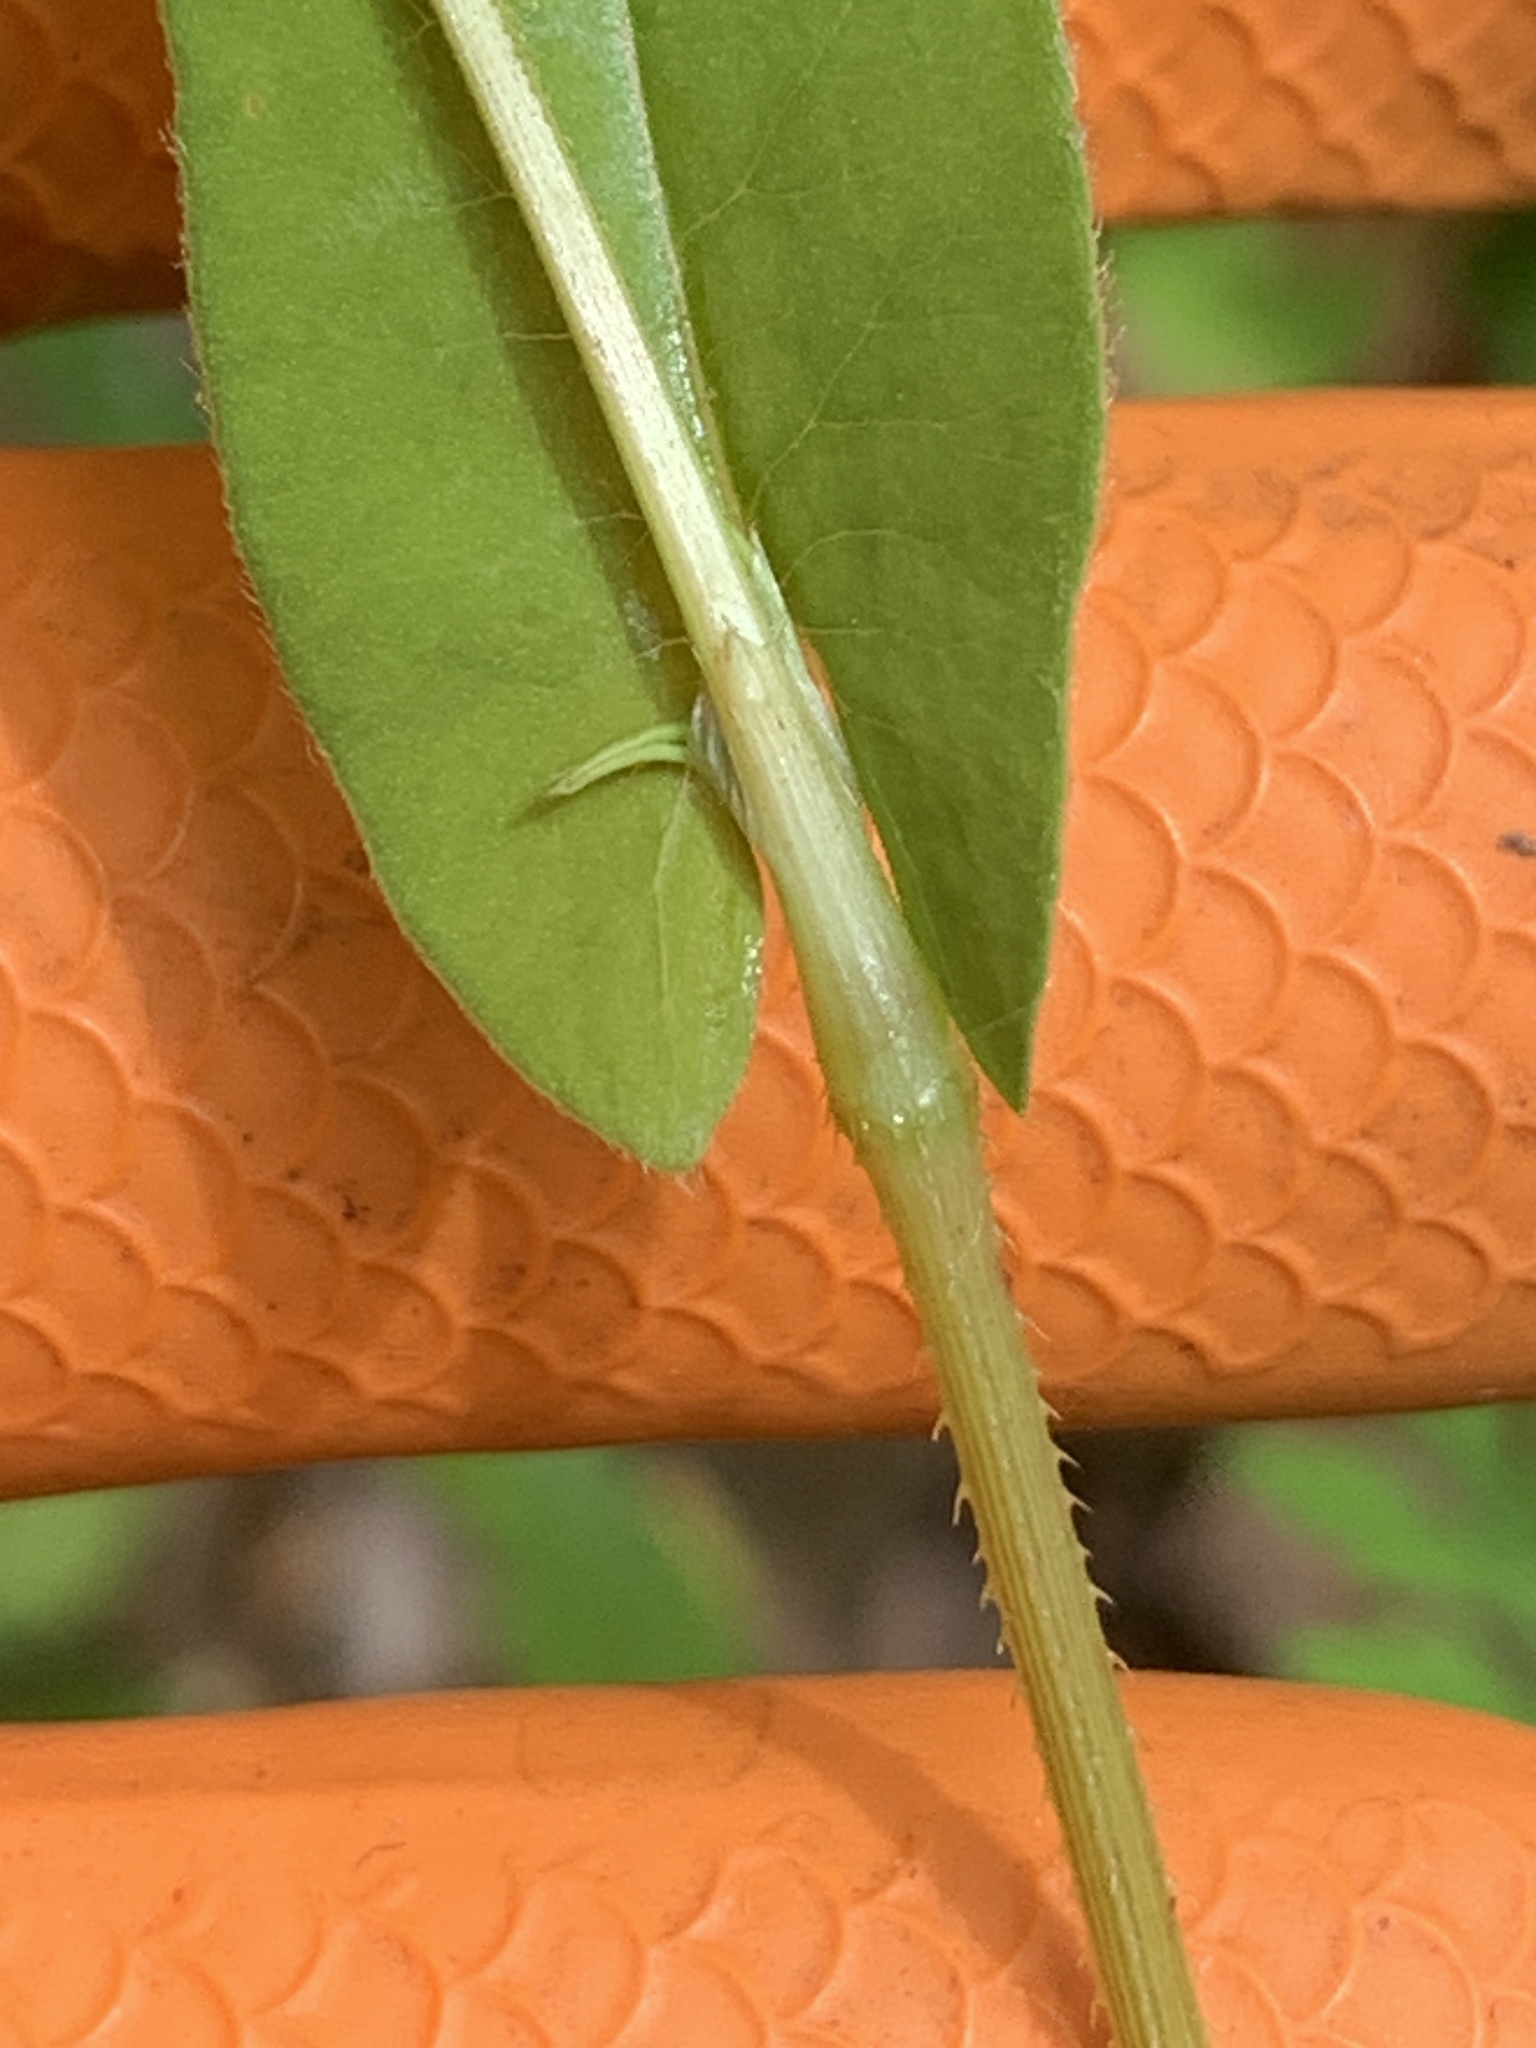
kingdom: Plantae
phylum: Tracheophyta
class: Magnoliopsida
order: Caryophyllales
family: Polygonaceae
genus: Persicaria
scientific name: Persicaria sagittata
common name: American tearthumb
